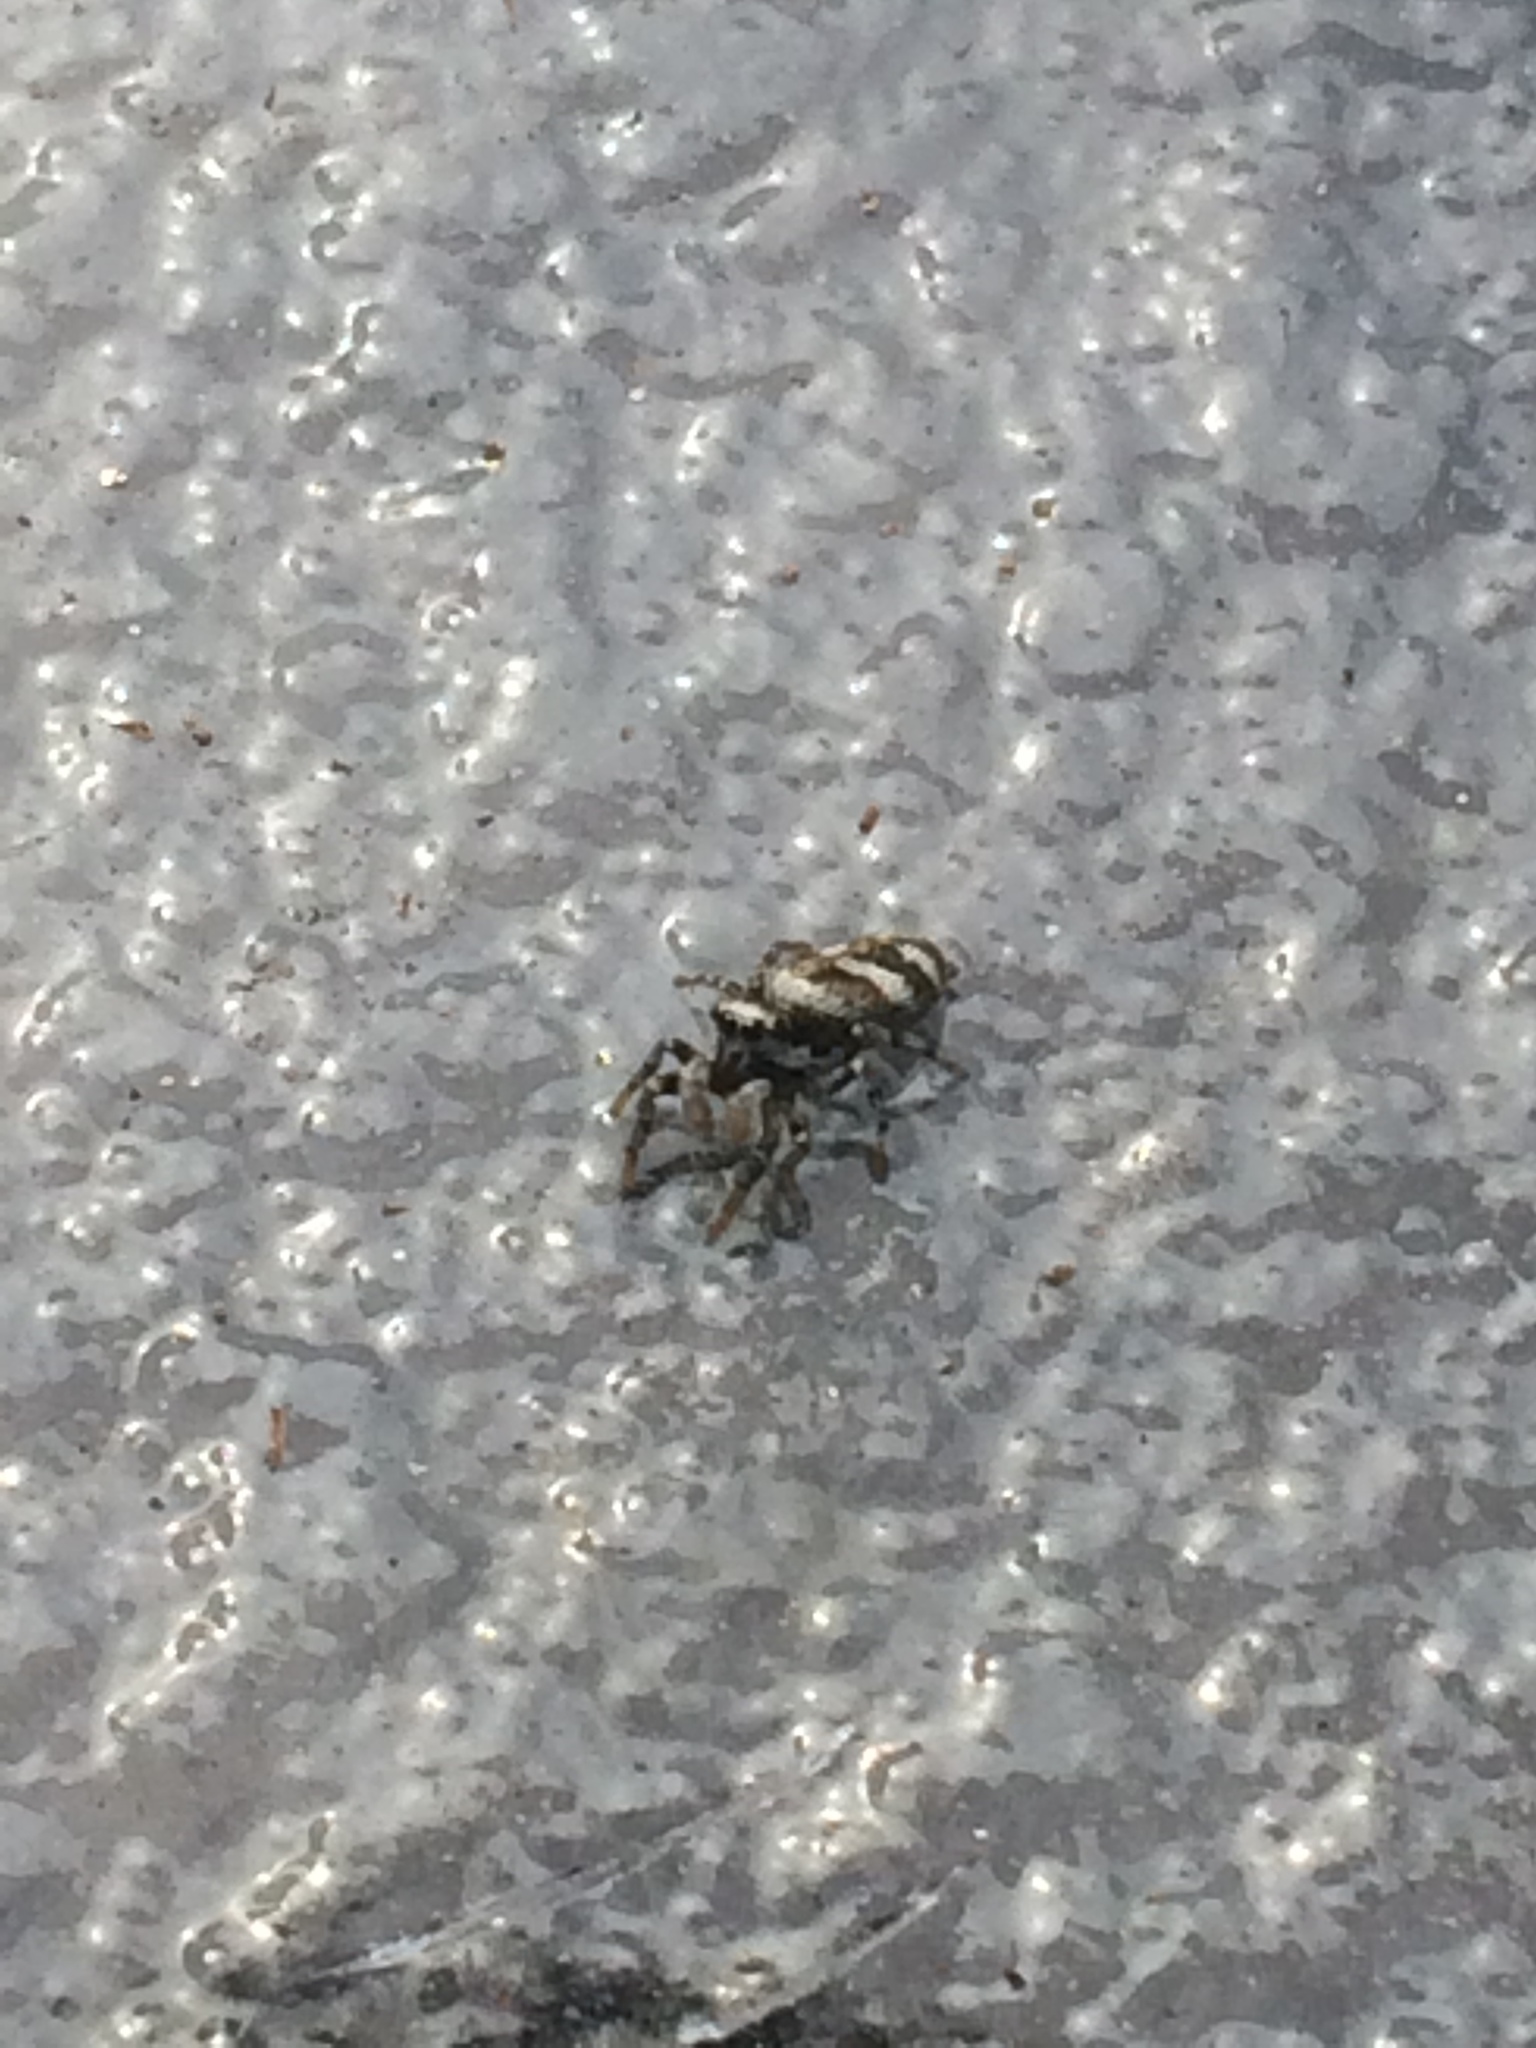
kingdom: Animalia
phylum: Arthropoda
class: Arachnida
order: Araneae
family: Salticidae
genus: Salticus
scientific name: Salticus scenicus
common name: Zebra jumper
